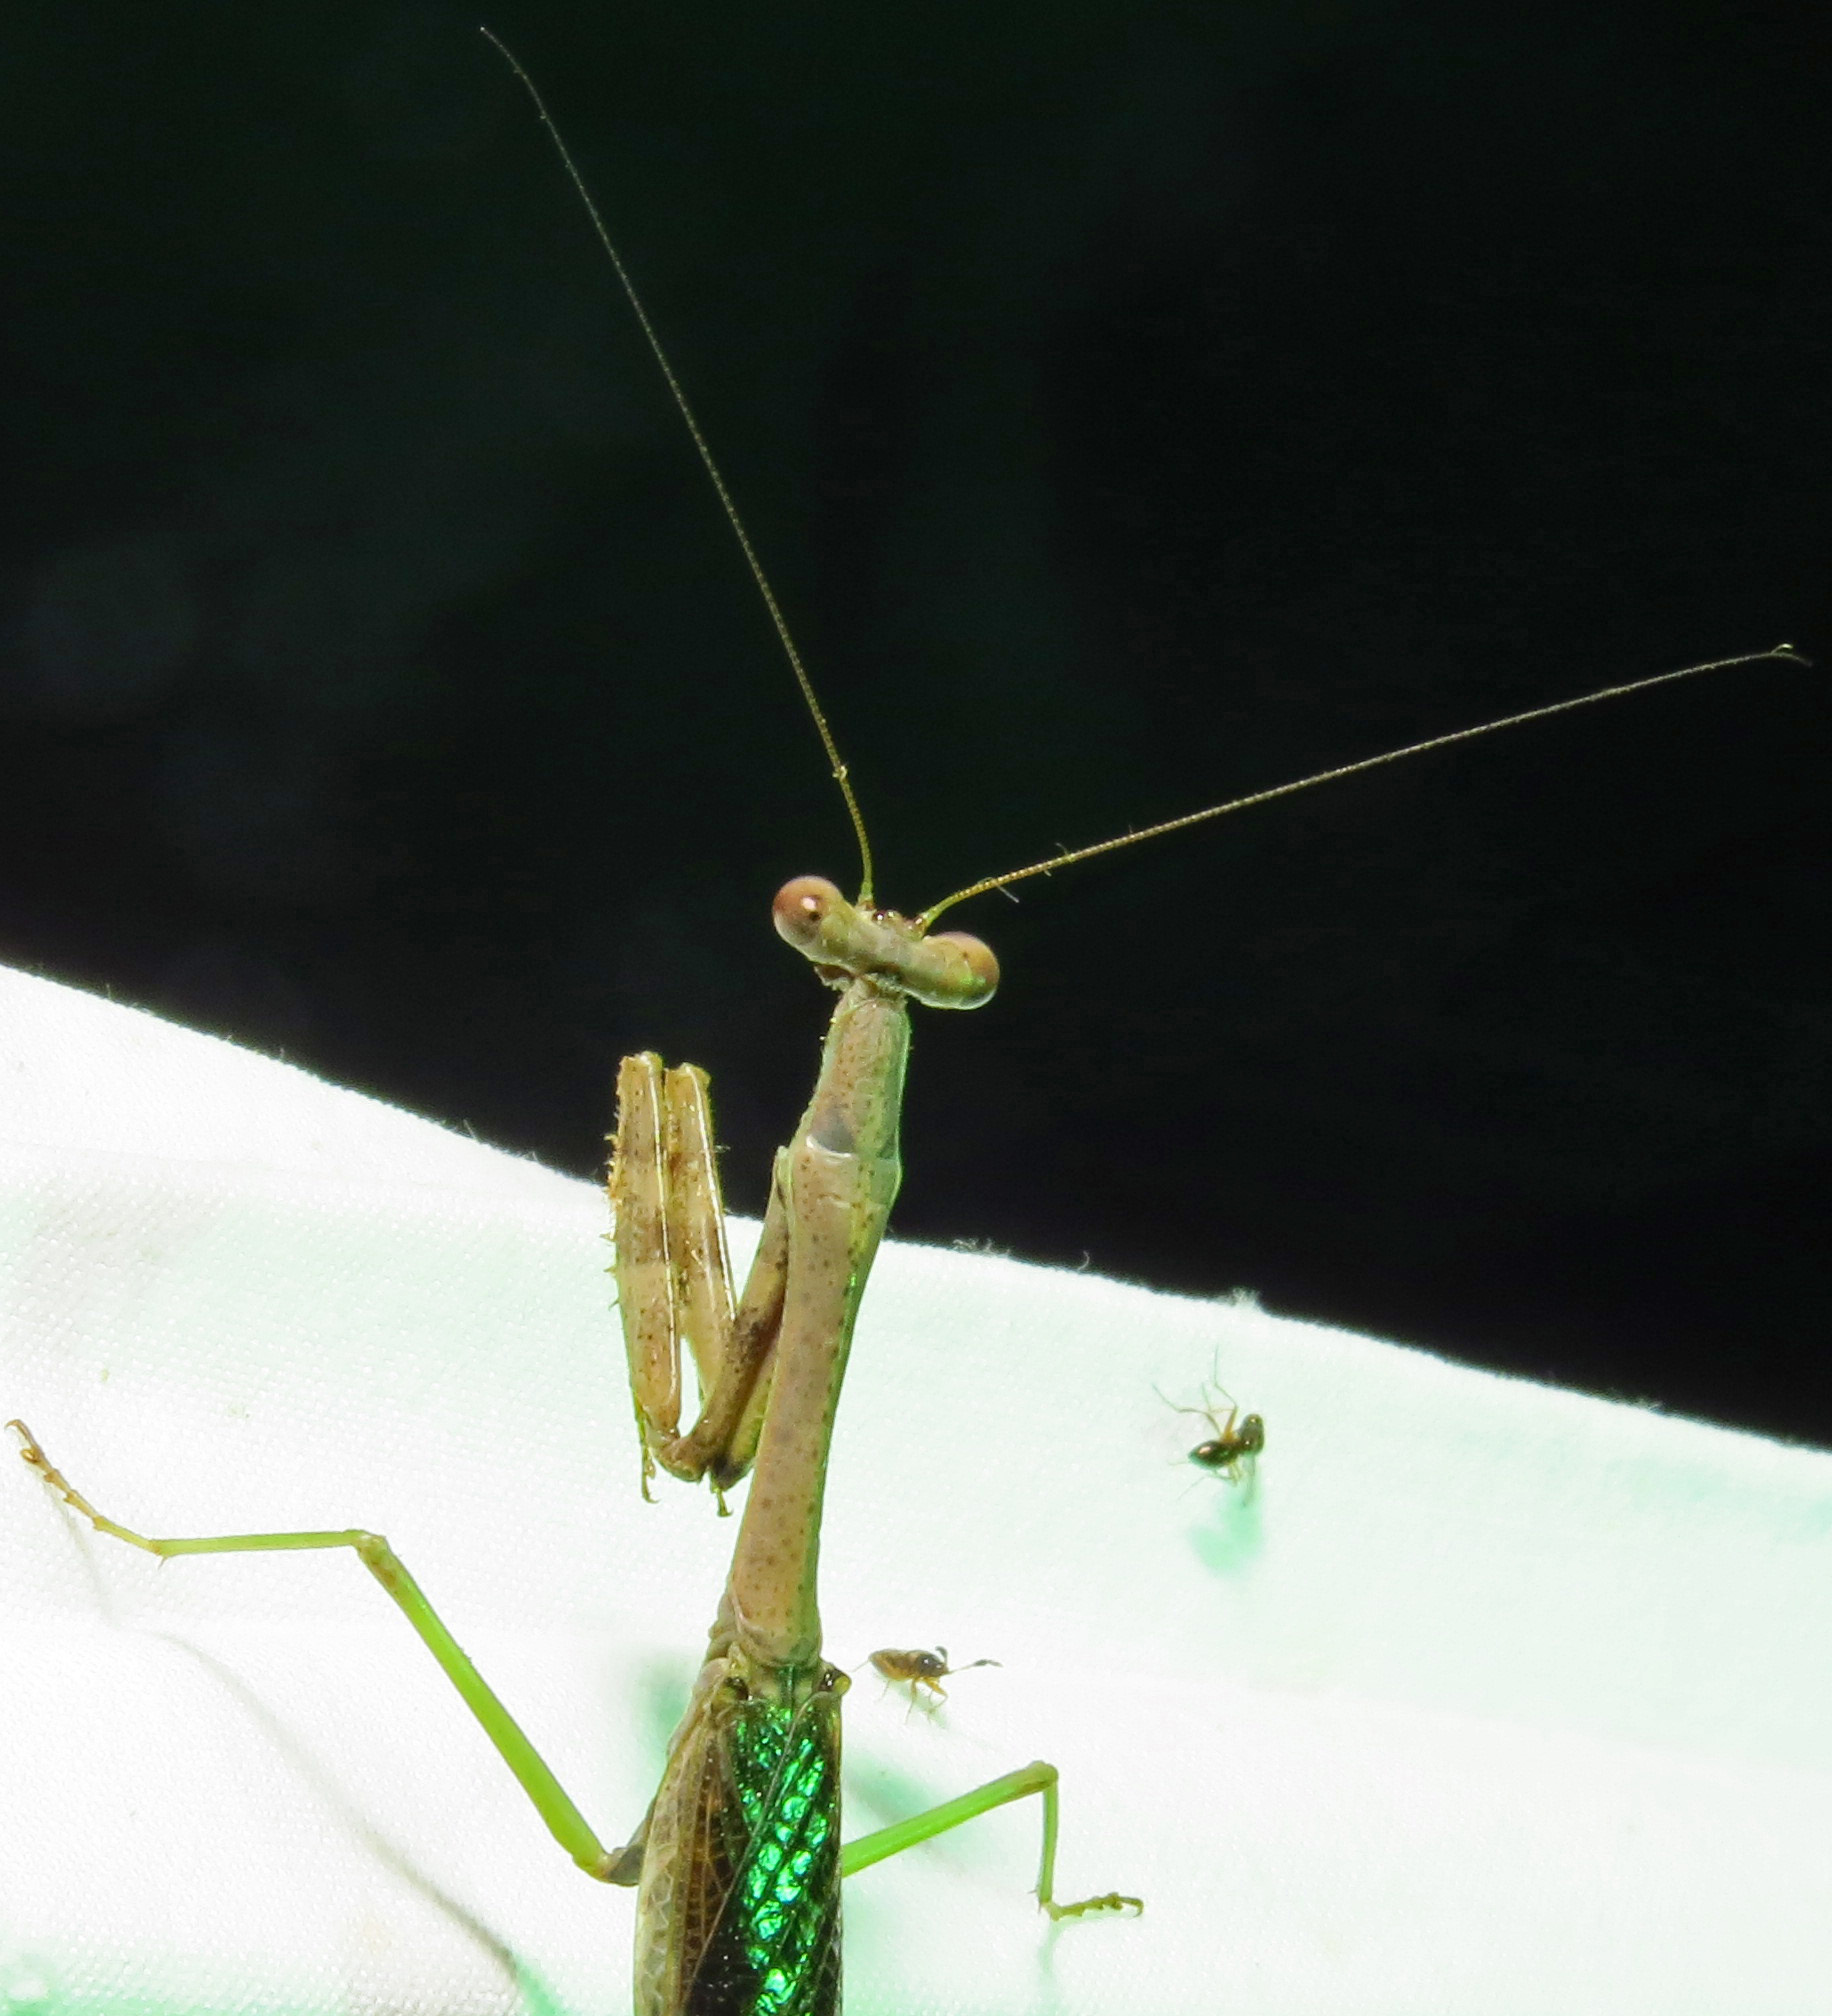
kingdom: Animalia
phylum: Arthropoda
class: Insecta
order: Mantodea
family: Mantidae
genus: Stagmomantis
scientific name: Stagmomantis carolina
